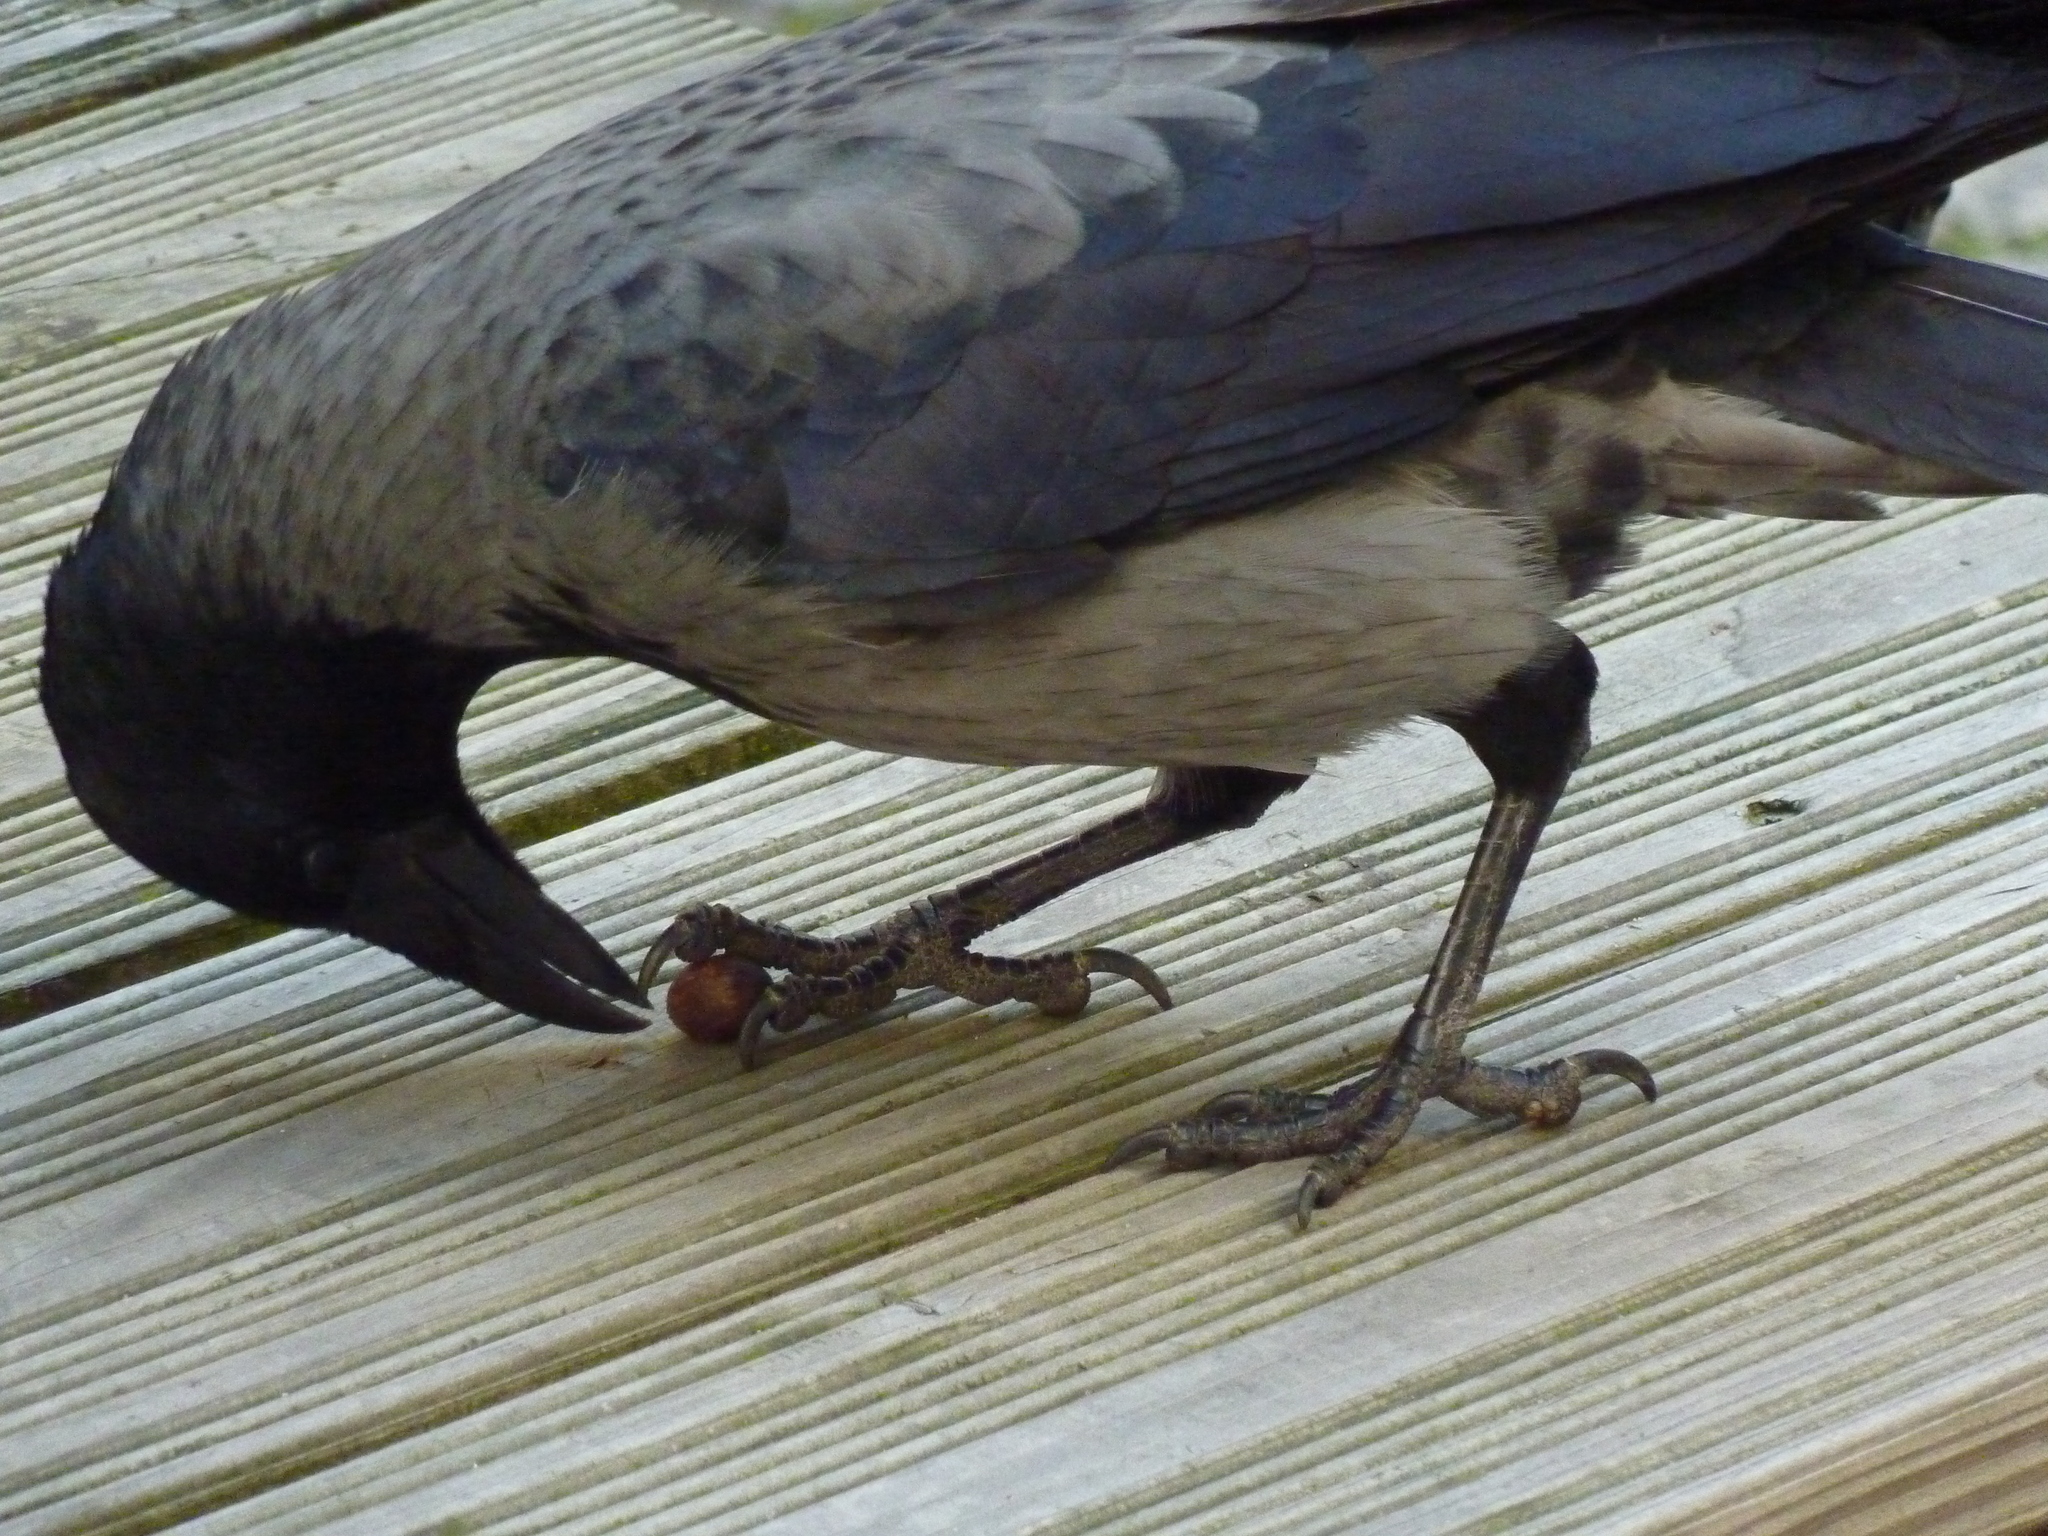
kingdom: Animalia
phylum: Chordata
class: Aves
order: Passeriformes
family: Corvidae
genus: Corvus
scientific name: Corvus cornix
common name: Hooded crow
